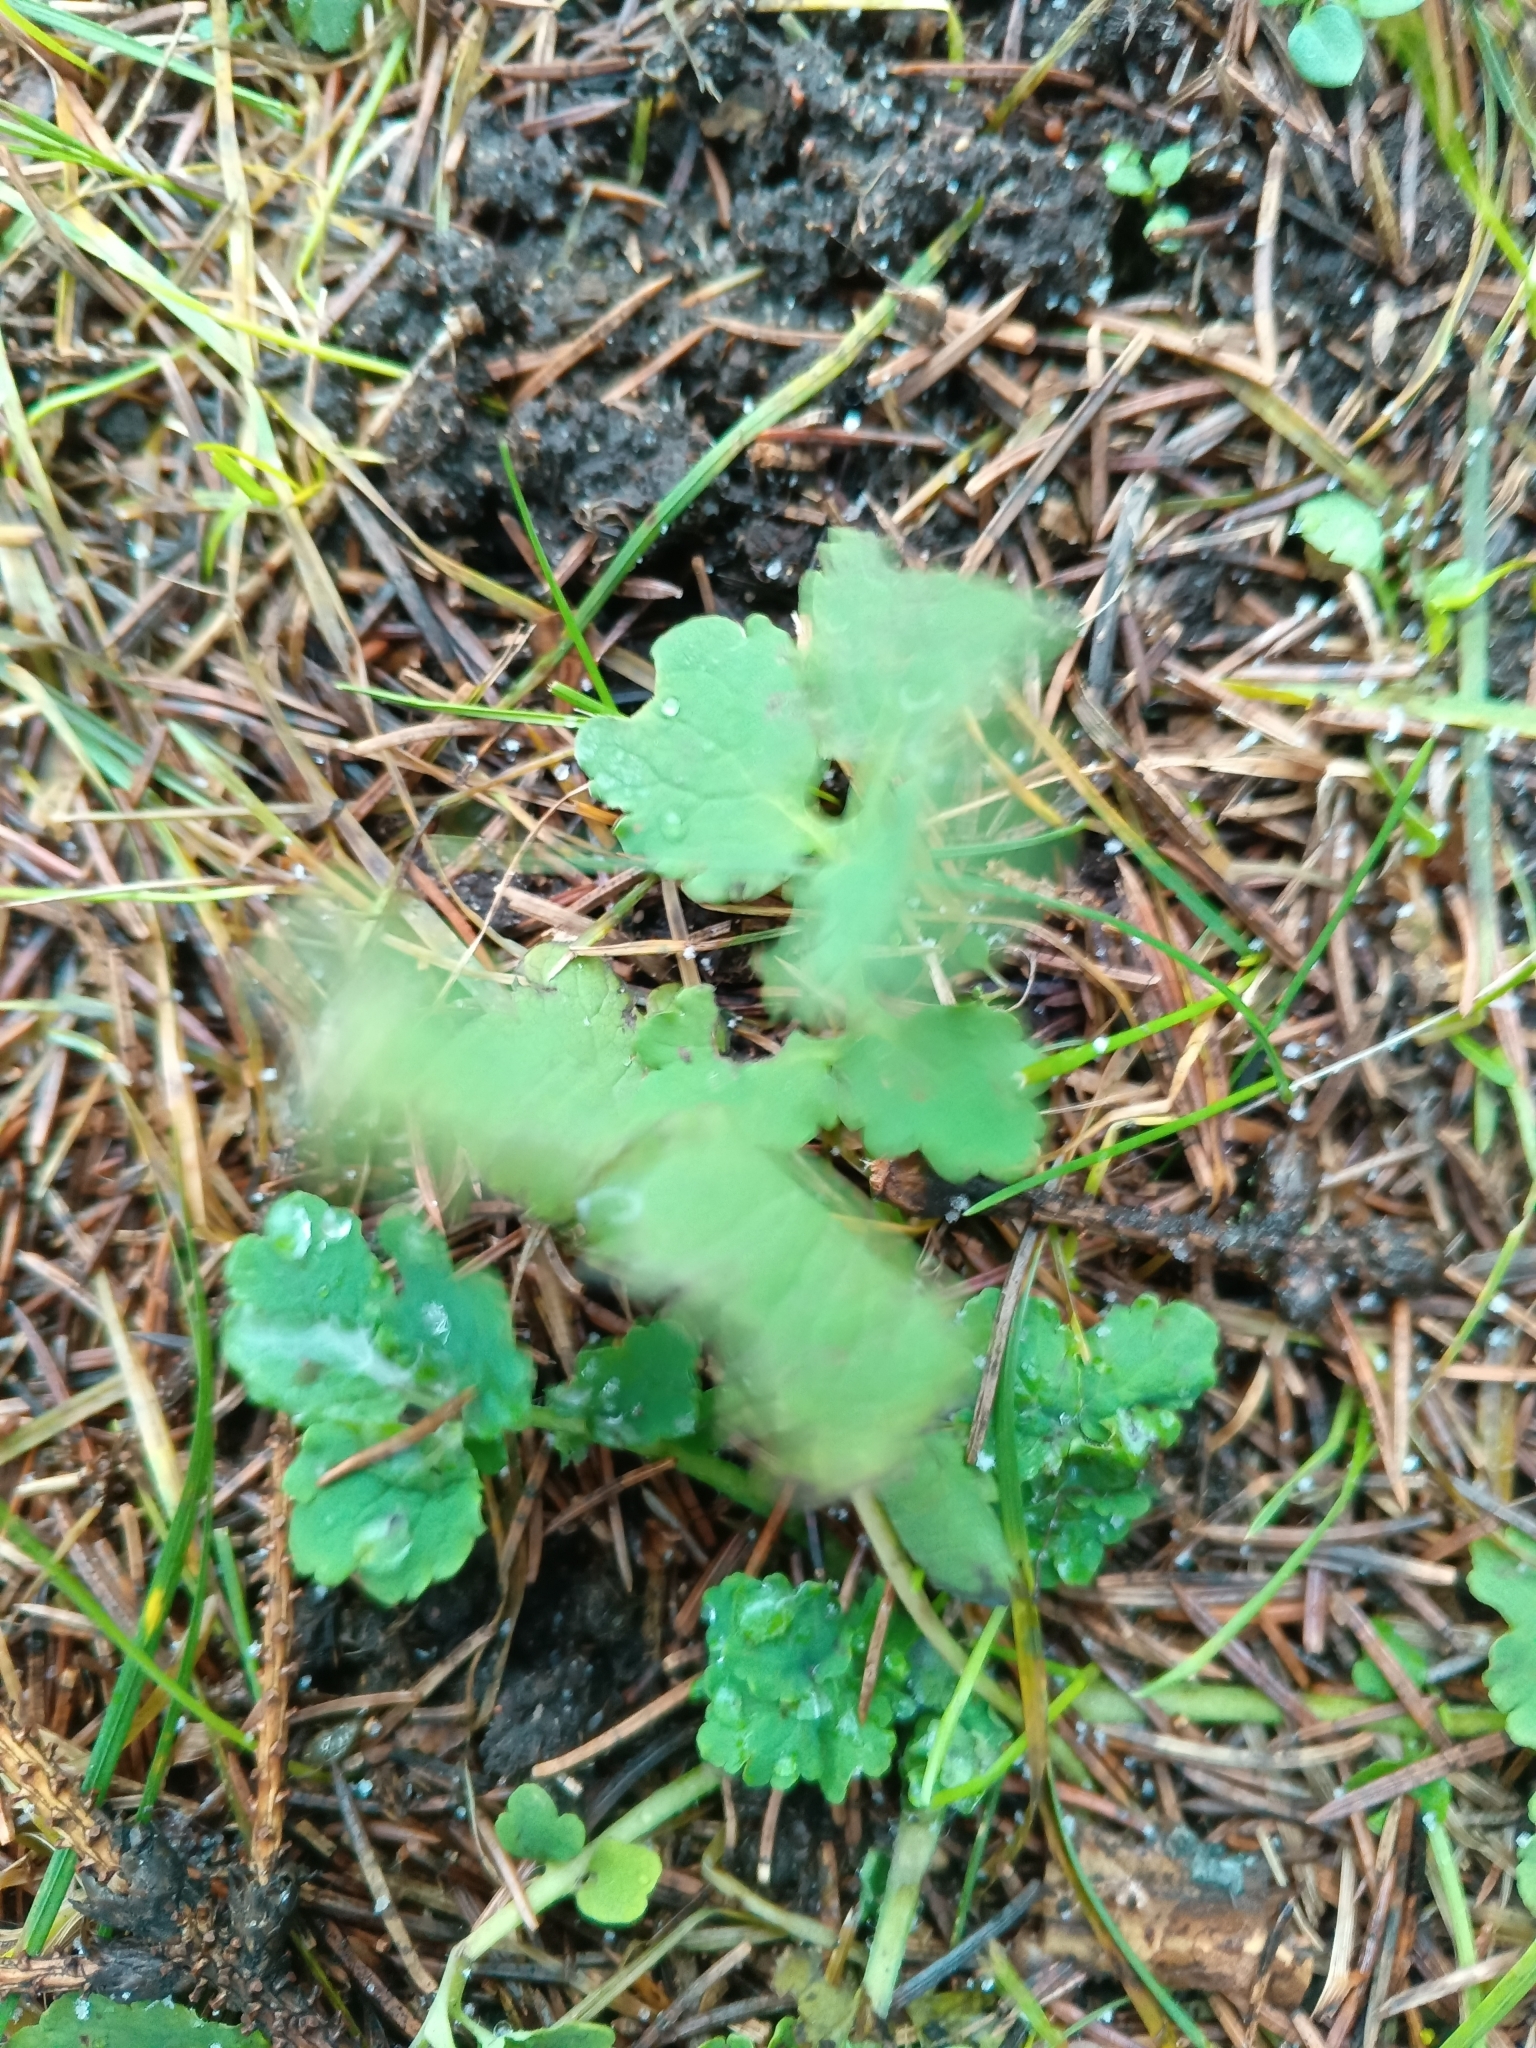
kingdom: Plantae
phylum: Tracheophyta
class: Magnoliopsida
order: Ranunculales
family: Papaveraceae
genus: Chelidonium
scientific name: Chelidonium majus
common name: Greater celandine
